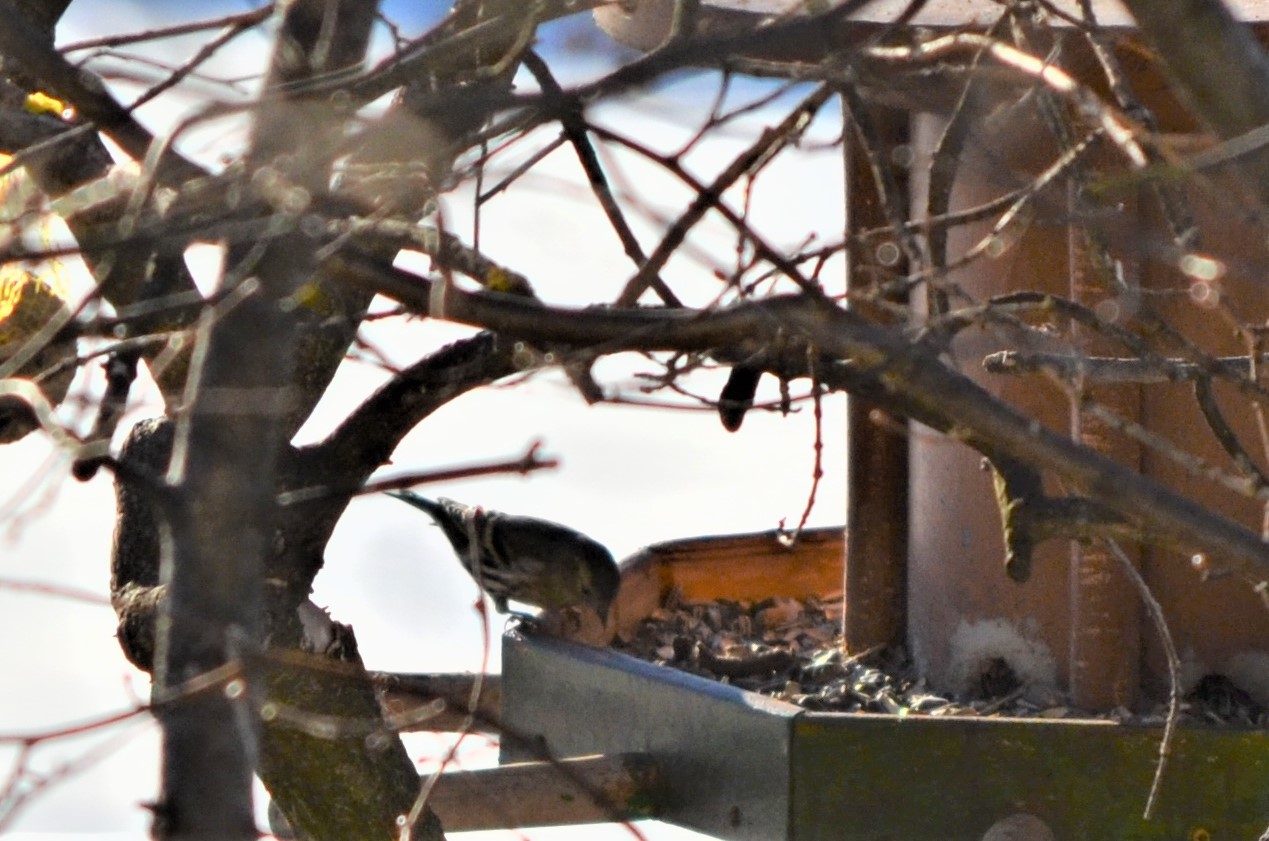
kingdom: Animalia
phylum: Chordata
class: Aves
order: Passeriformes
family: Fringillidae
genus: Spinus
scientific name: Spinus spinus
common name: Eurasian siskin
